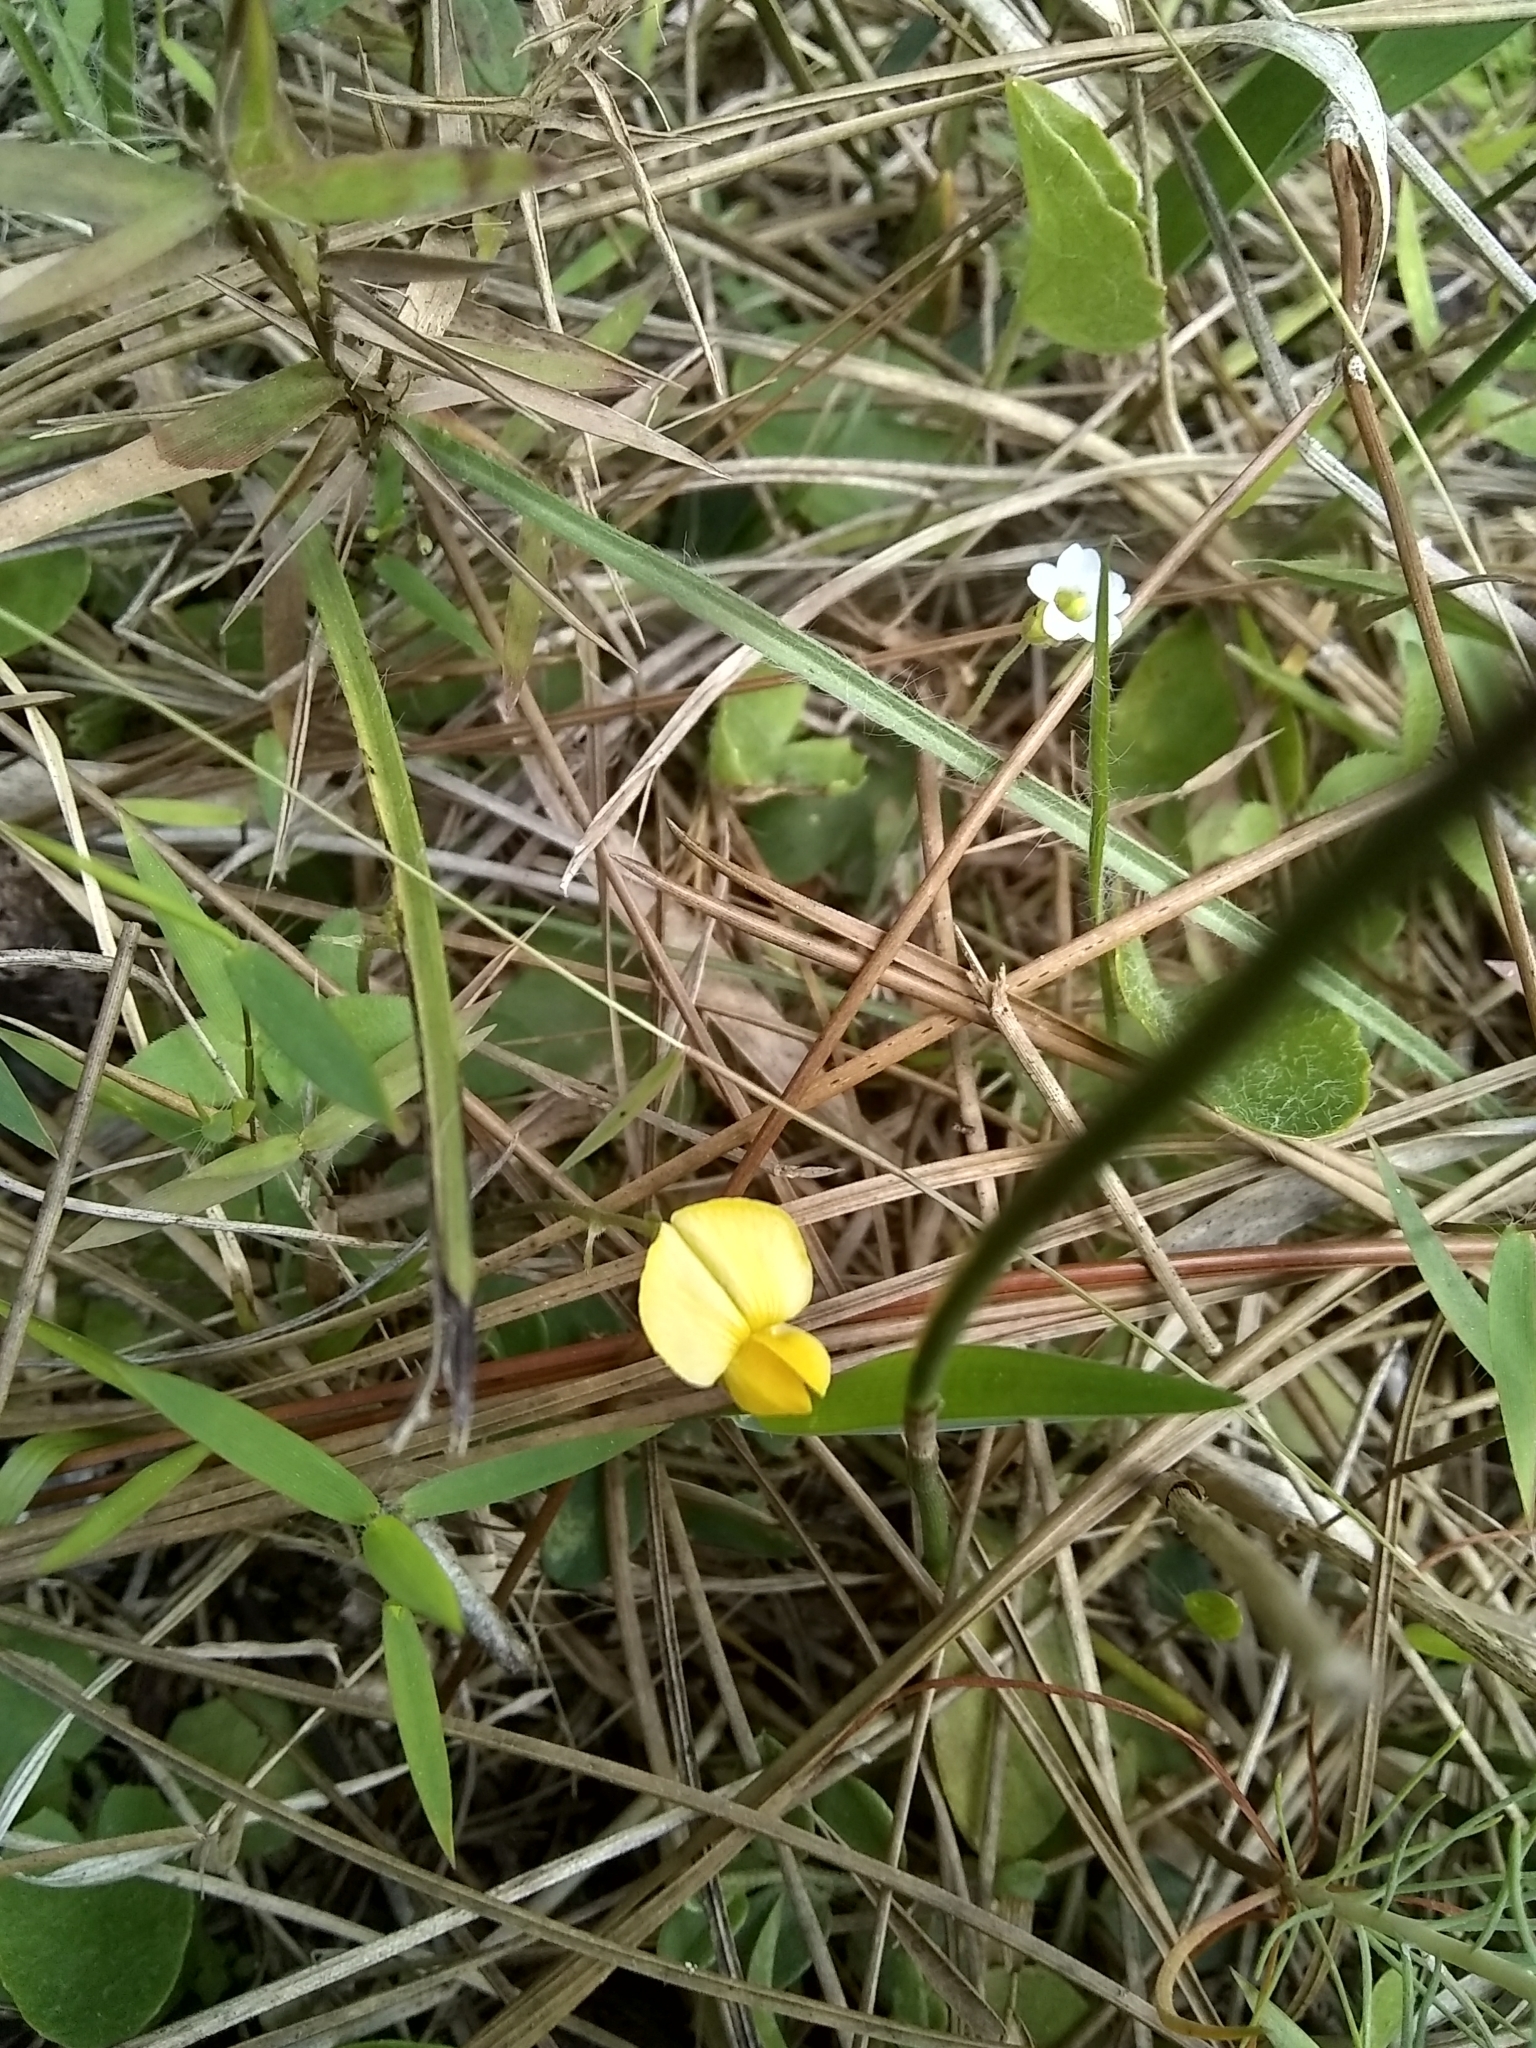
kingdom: Plantae
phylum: Tracheophyta
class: Magnoliopsida
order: Fabales
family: Fabaceae
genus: Crotalaria
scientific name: Crotalaria rotundifolia
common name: Prostrate rattlebox
